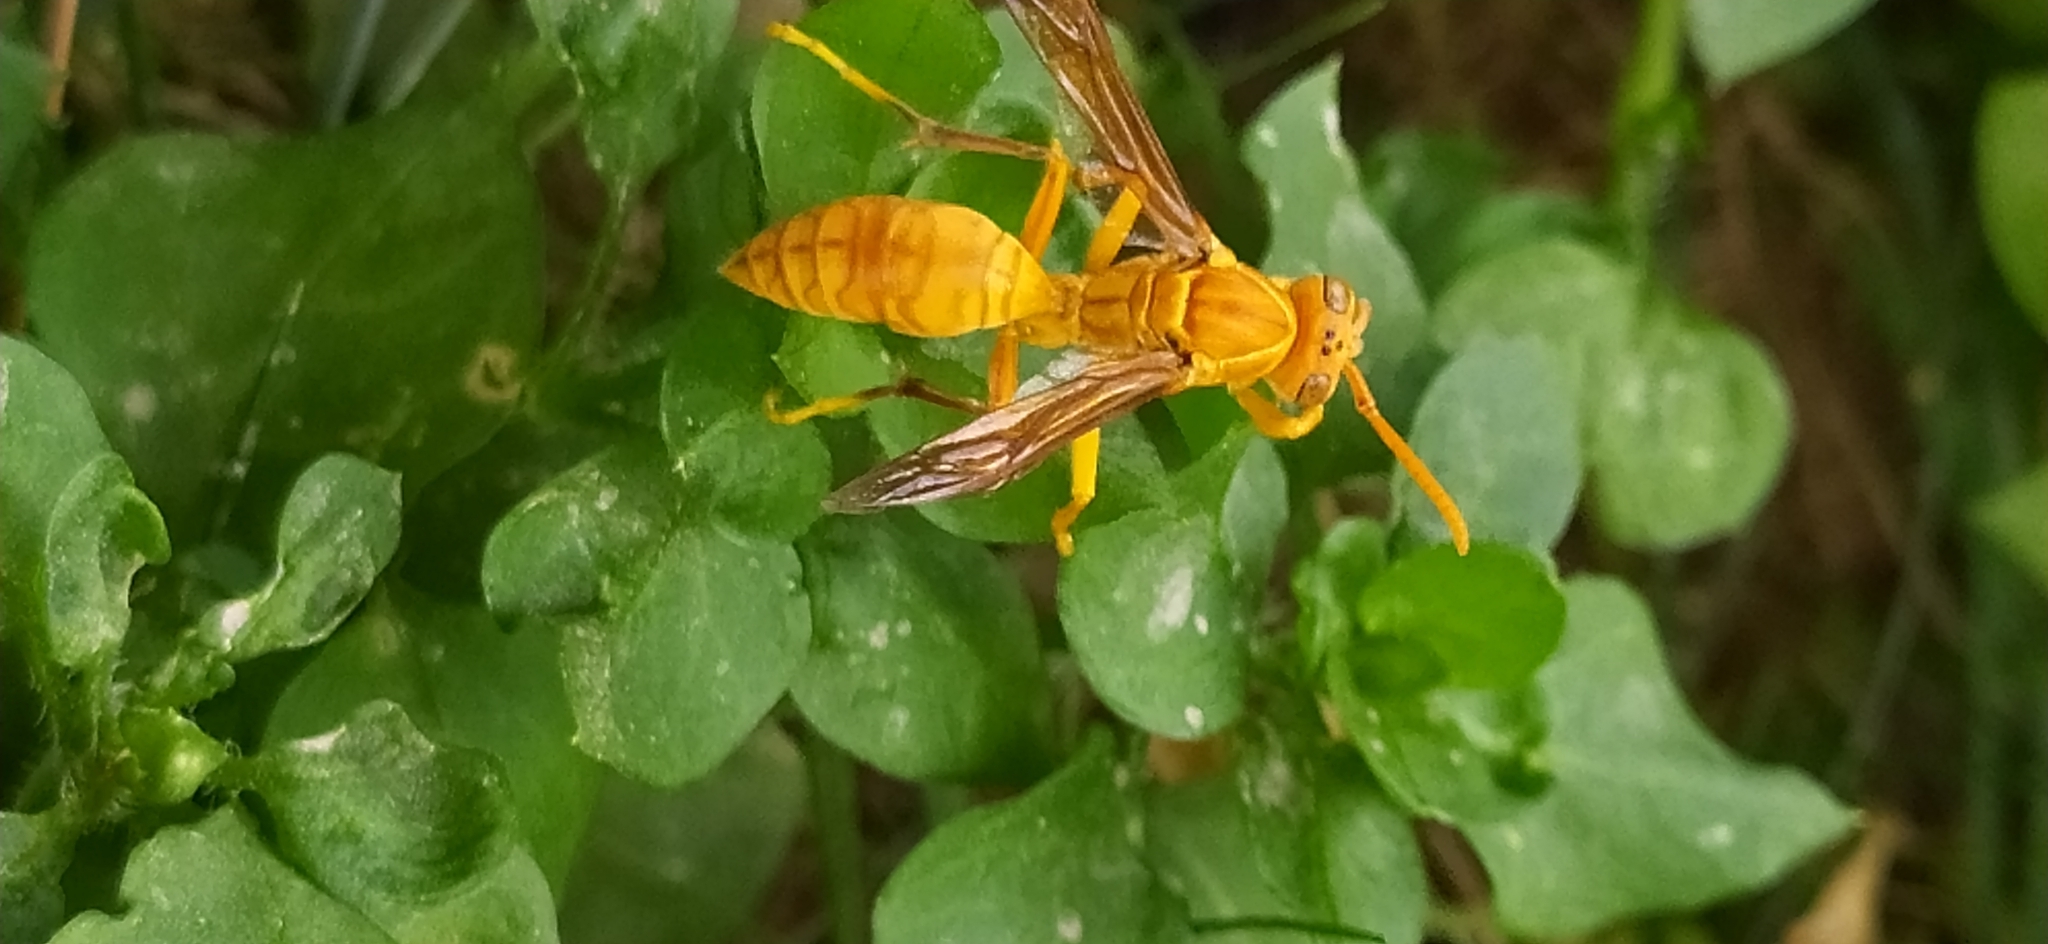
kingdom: Animalia
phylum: Arthropoda
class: Insecta
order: Hymenoptera
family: Eumenidae
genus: Polistes
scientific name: Polistes wattii
